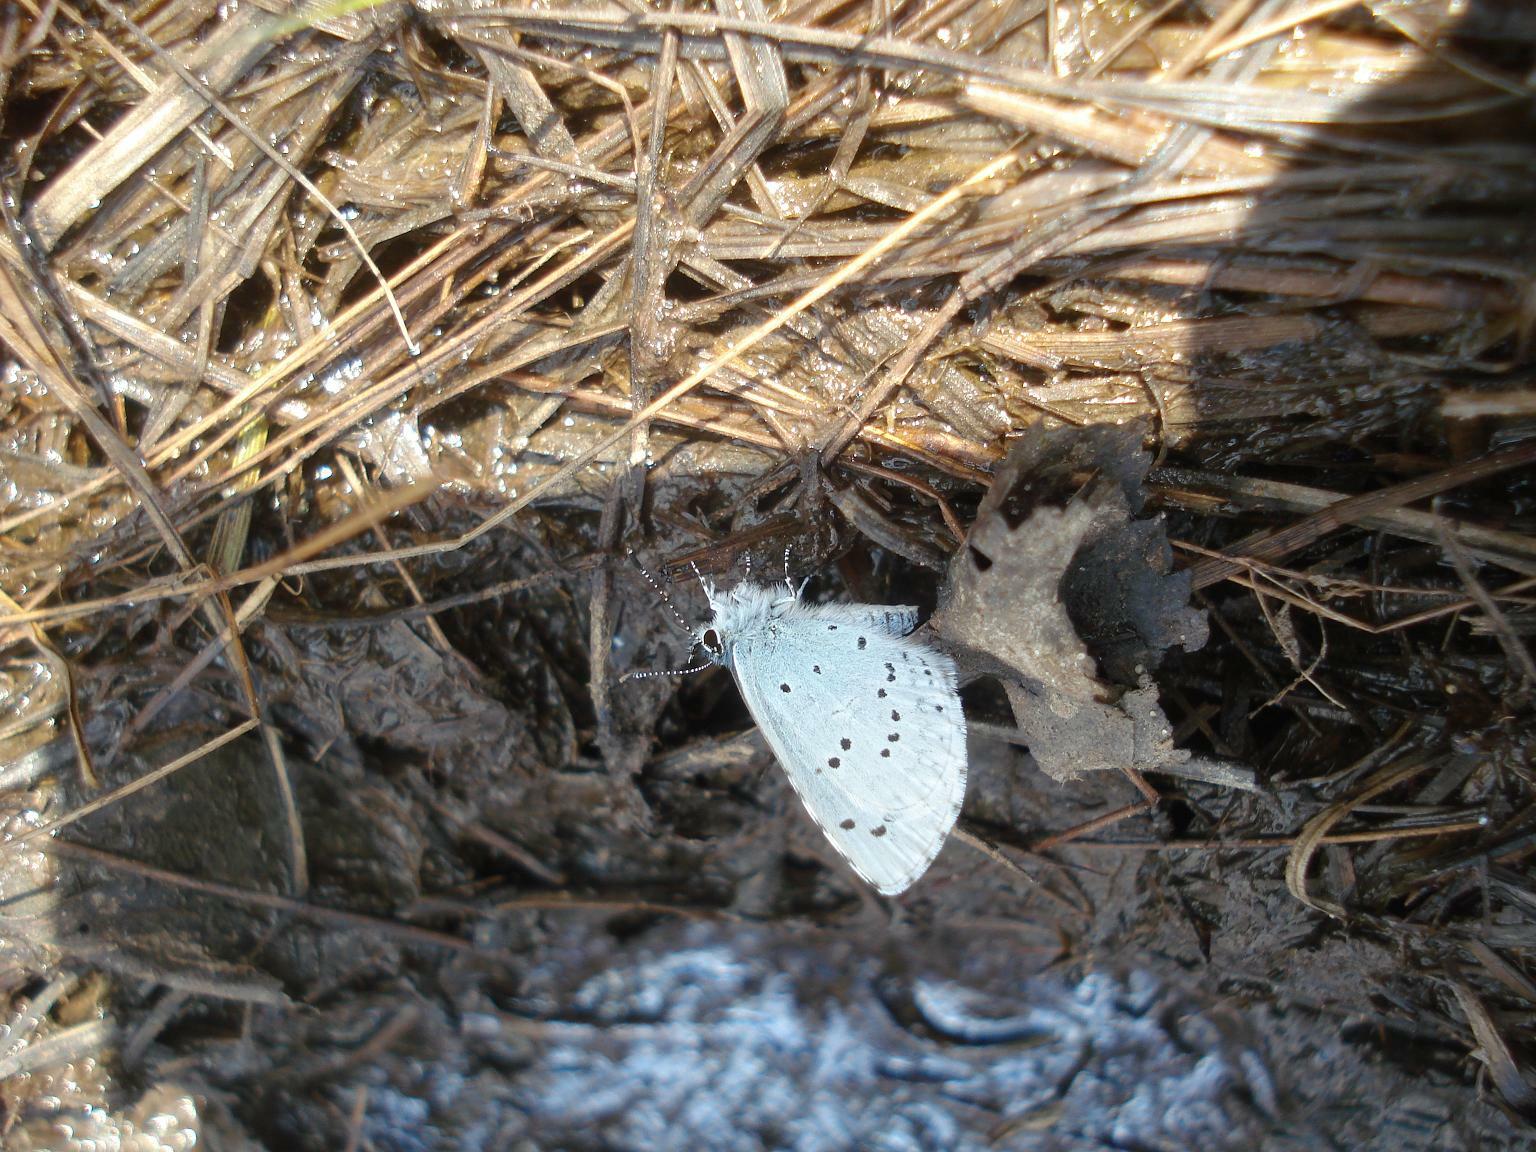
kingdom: Animalia
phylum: Arthropoda
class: Insecta
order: Lepidoptera
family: Lycaenidae
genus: Celastrina
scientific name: Celastrina argiolus
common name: Holly blue
